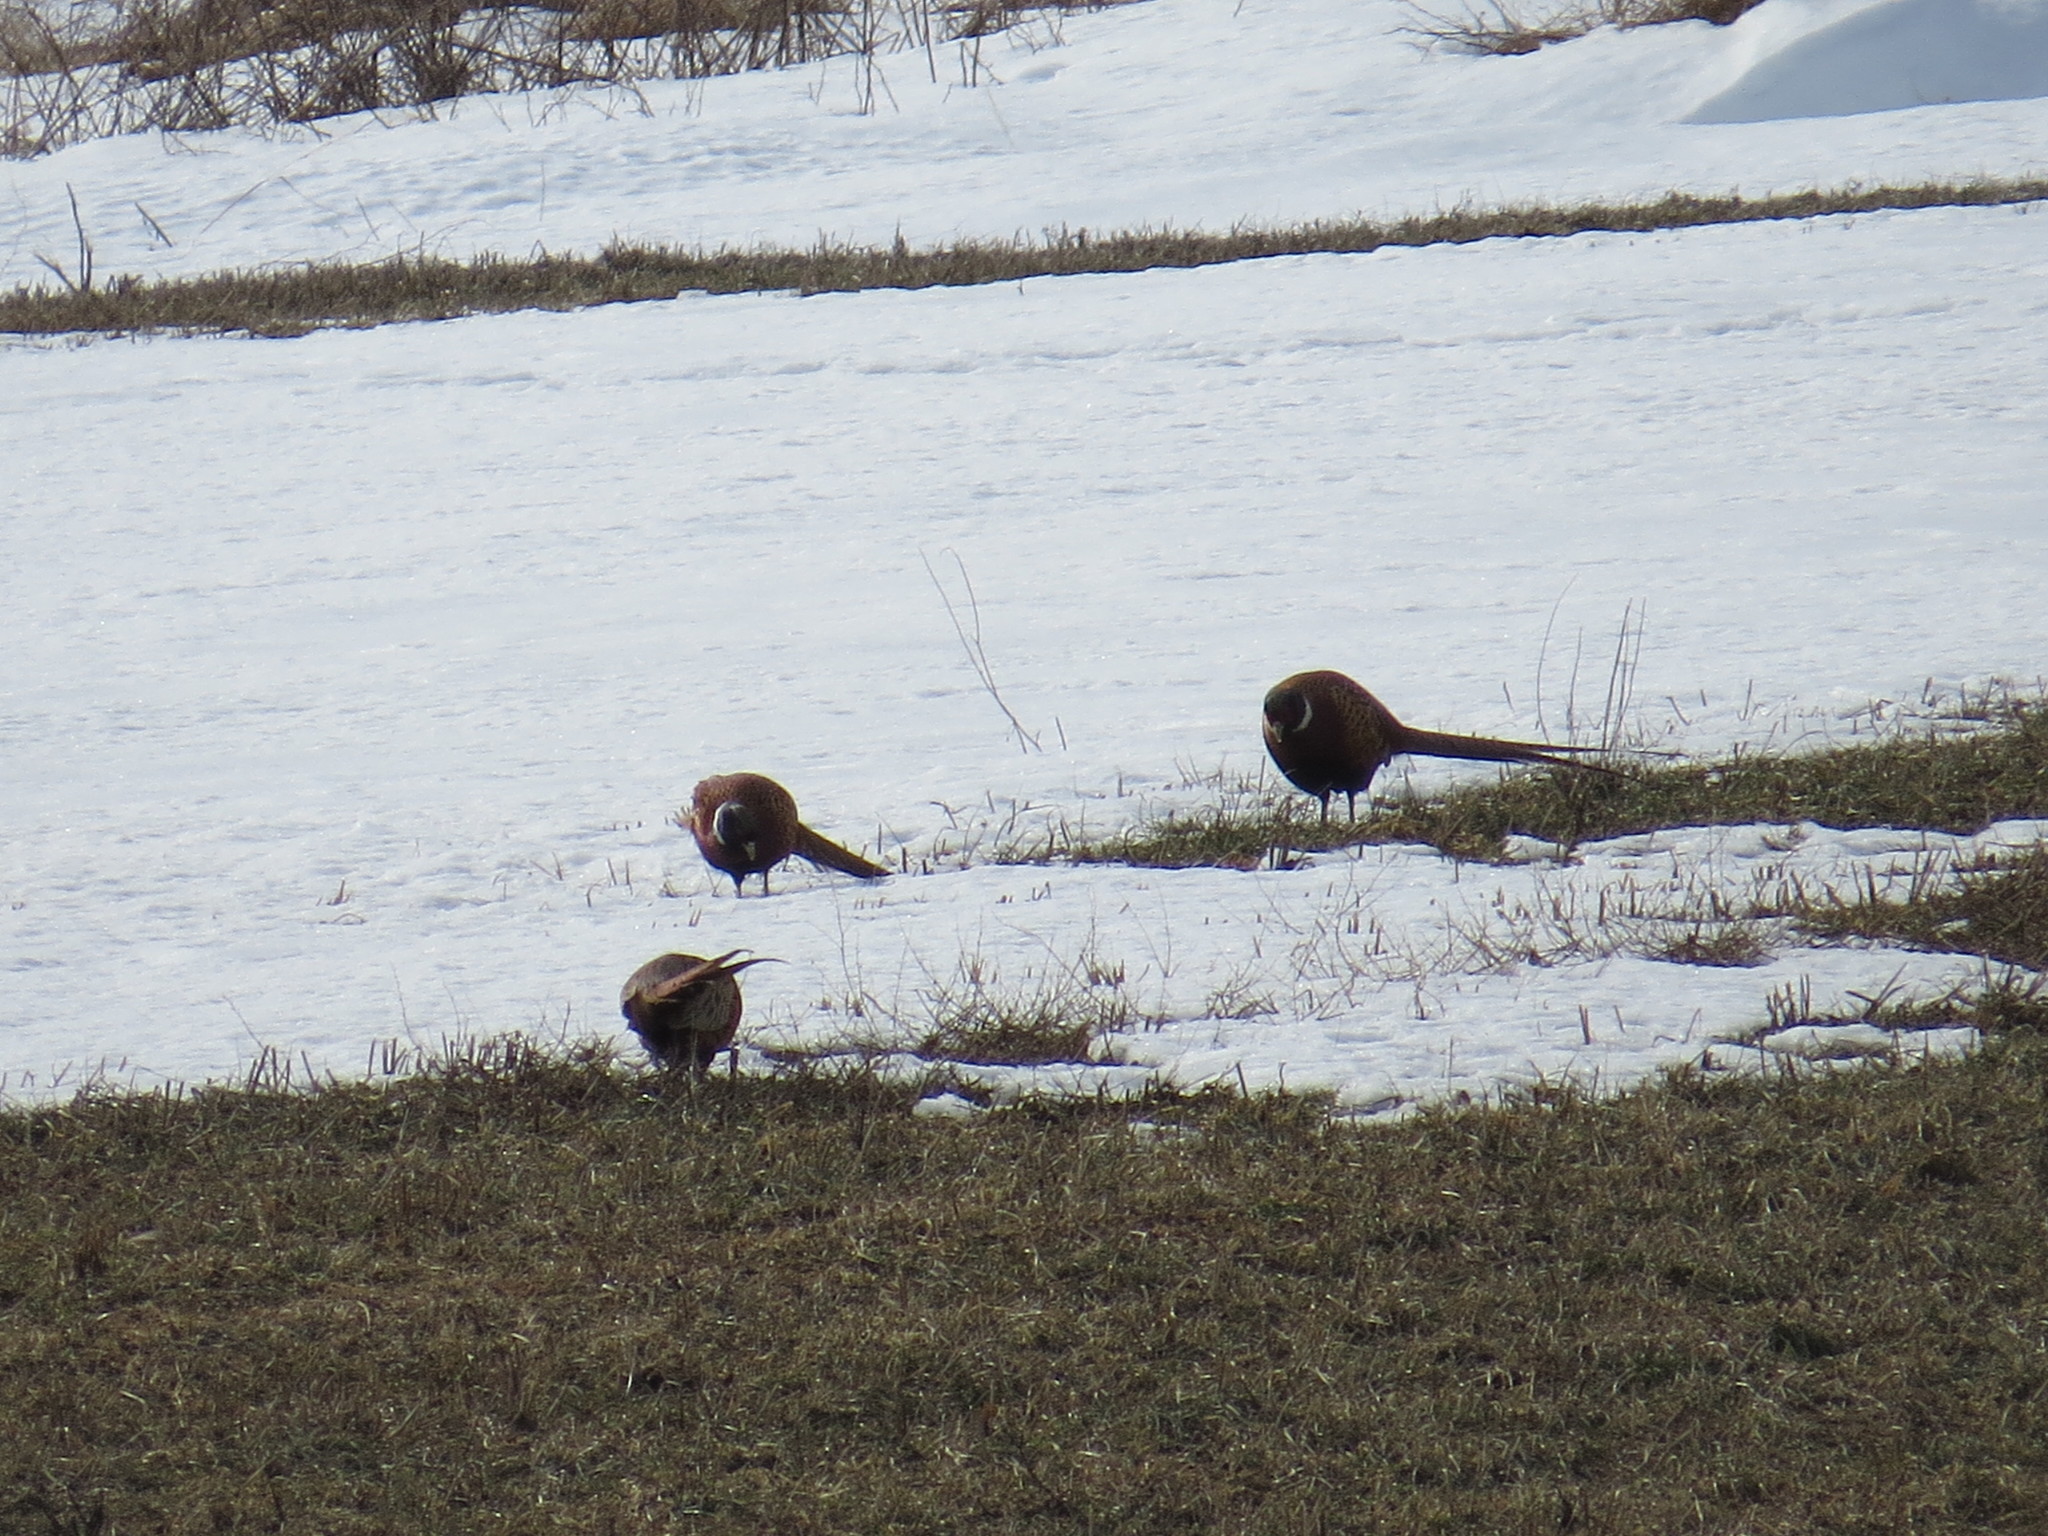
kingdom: Animalia
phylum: Chordata
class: Aves
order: Galliformes
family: Phasianidae
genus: Phasianus
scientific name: Phasianus colchicus
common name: Common pheasant
